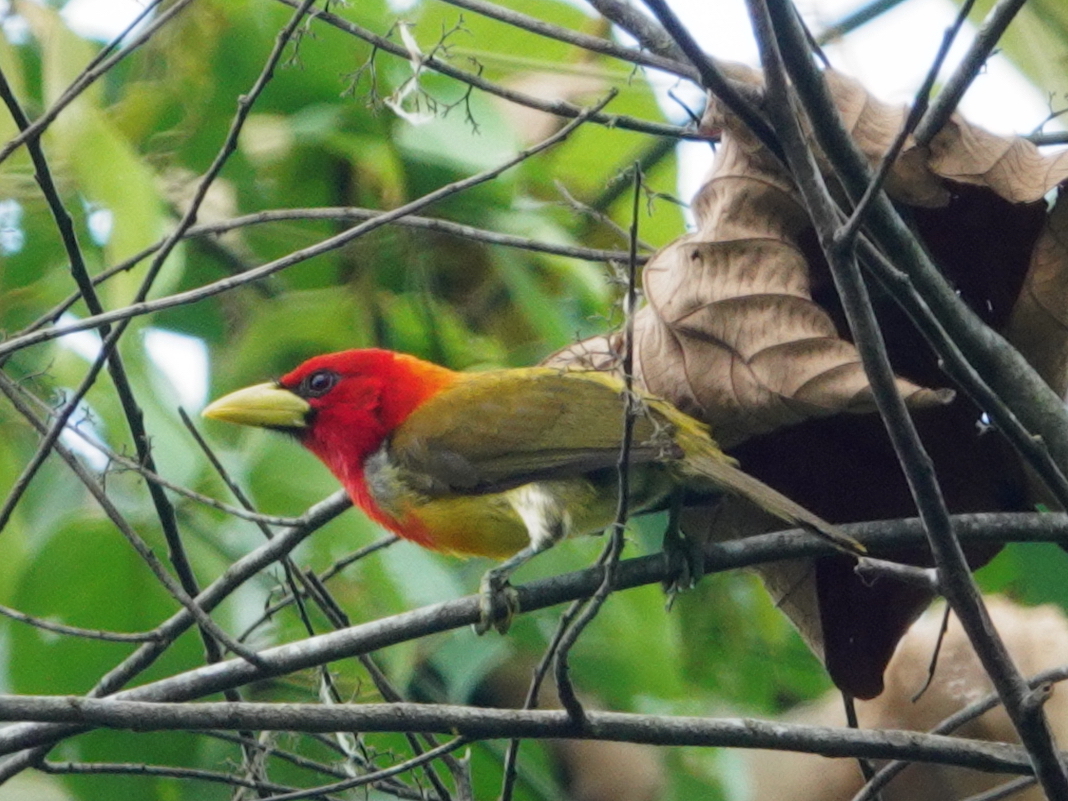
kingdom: Animalia
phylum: Chordata
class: Aves
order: Piciformes
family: Capitonidae
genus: Eubucco
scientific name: Eubucco tucinkae
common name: Scarlet-hooded barbet
